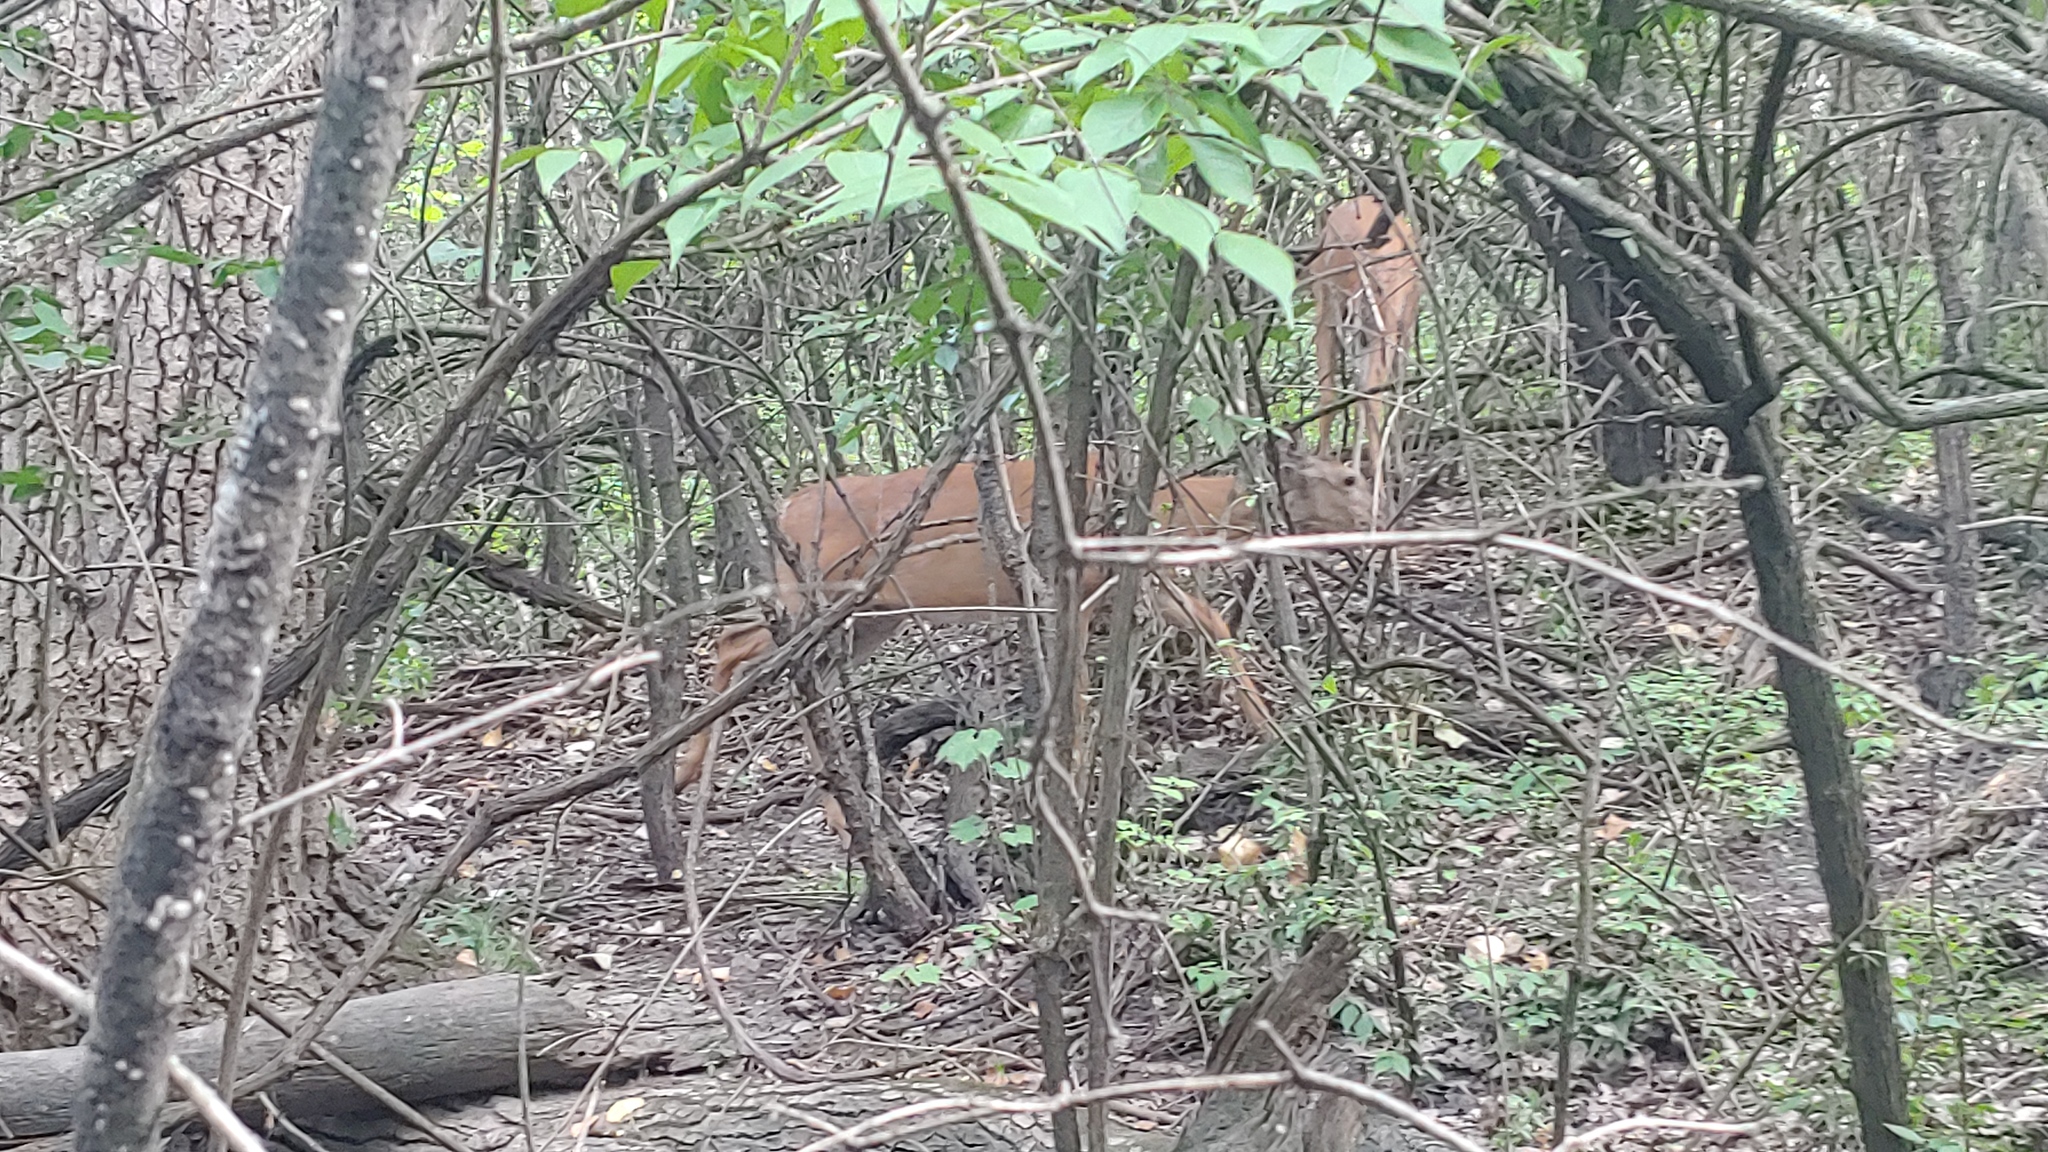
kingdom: Animalia
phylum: Chordata
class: Mammalia
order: Artiodactyla
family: Cervidae
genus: Odocoileus
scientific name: Odocoileus virginianus
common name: White-tailed deer
